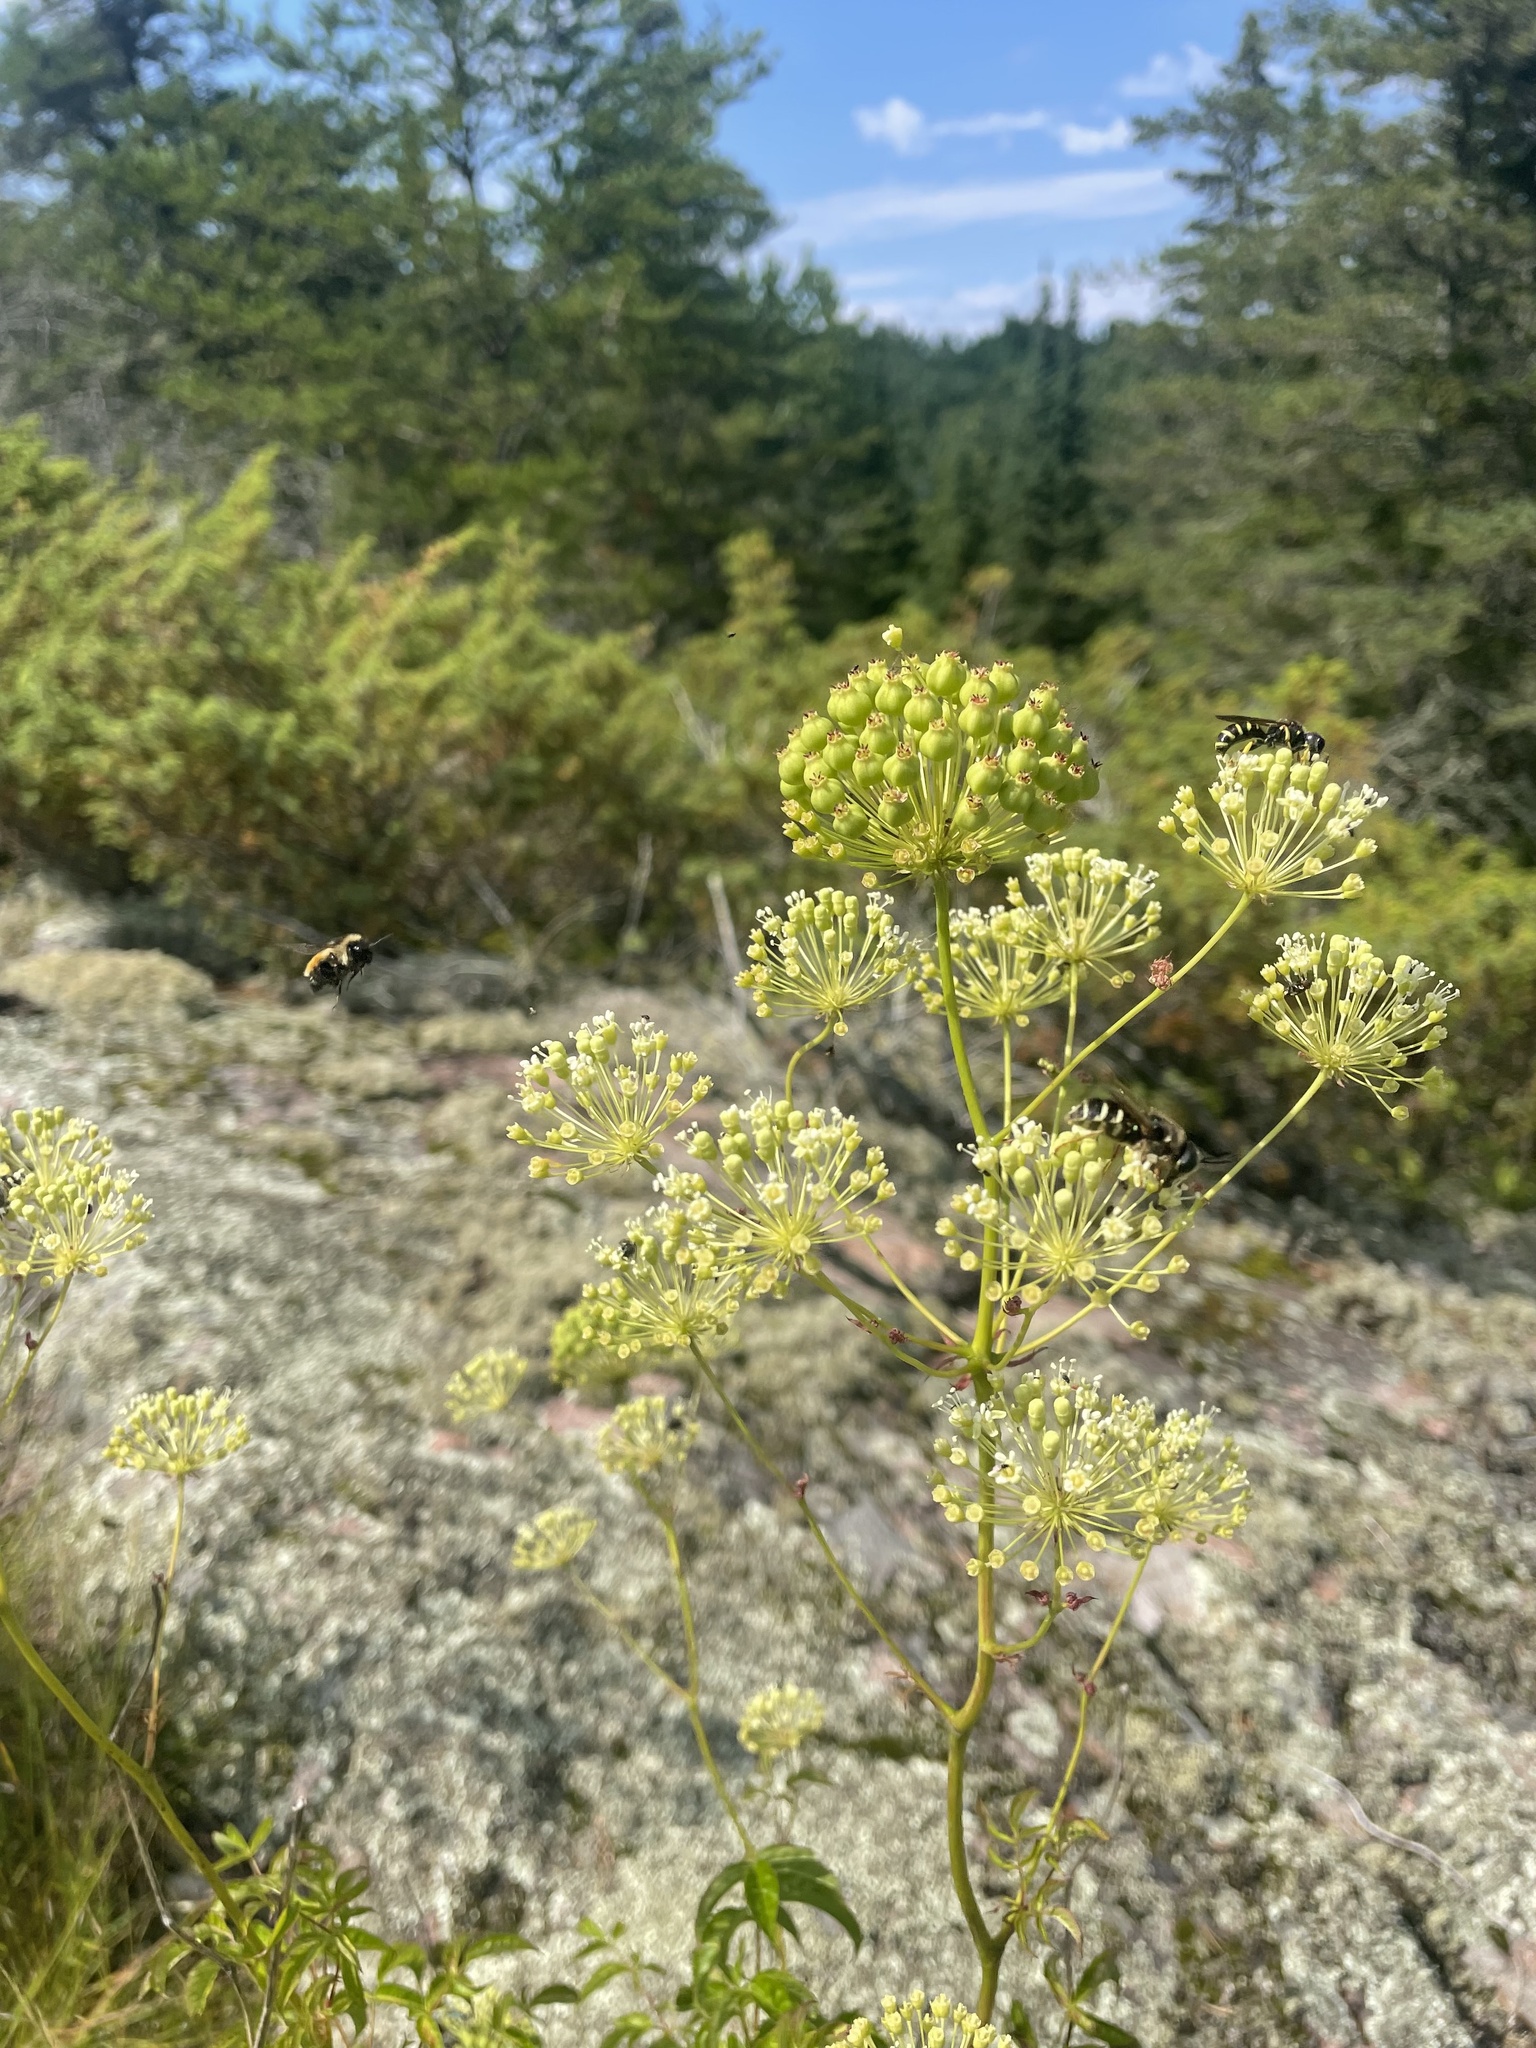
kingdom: Plantae
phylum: Tracheophyta
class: Magnoliopsida
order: Apiales
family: Araliaceae
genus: Aralia
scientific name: Aralia hispida
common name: Bristly sarsaparilla
